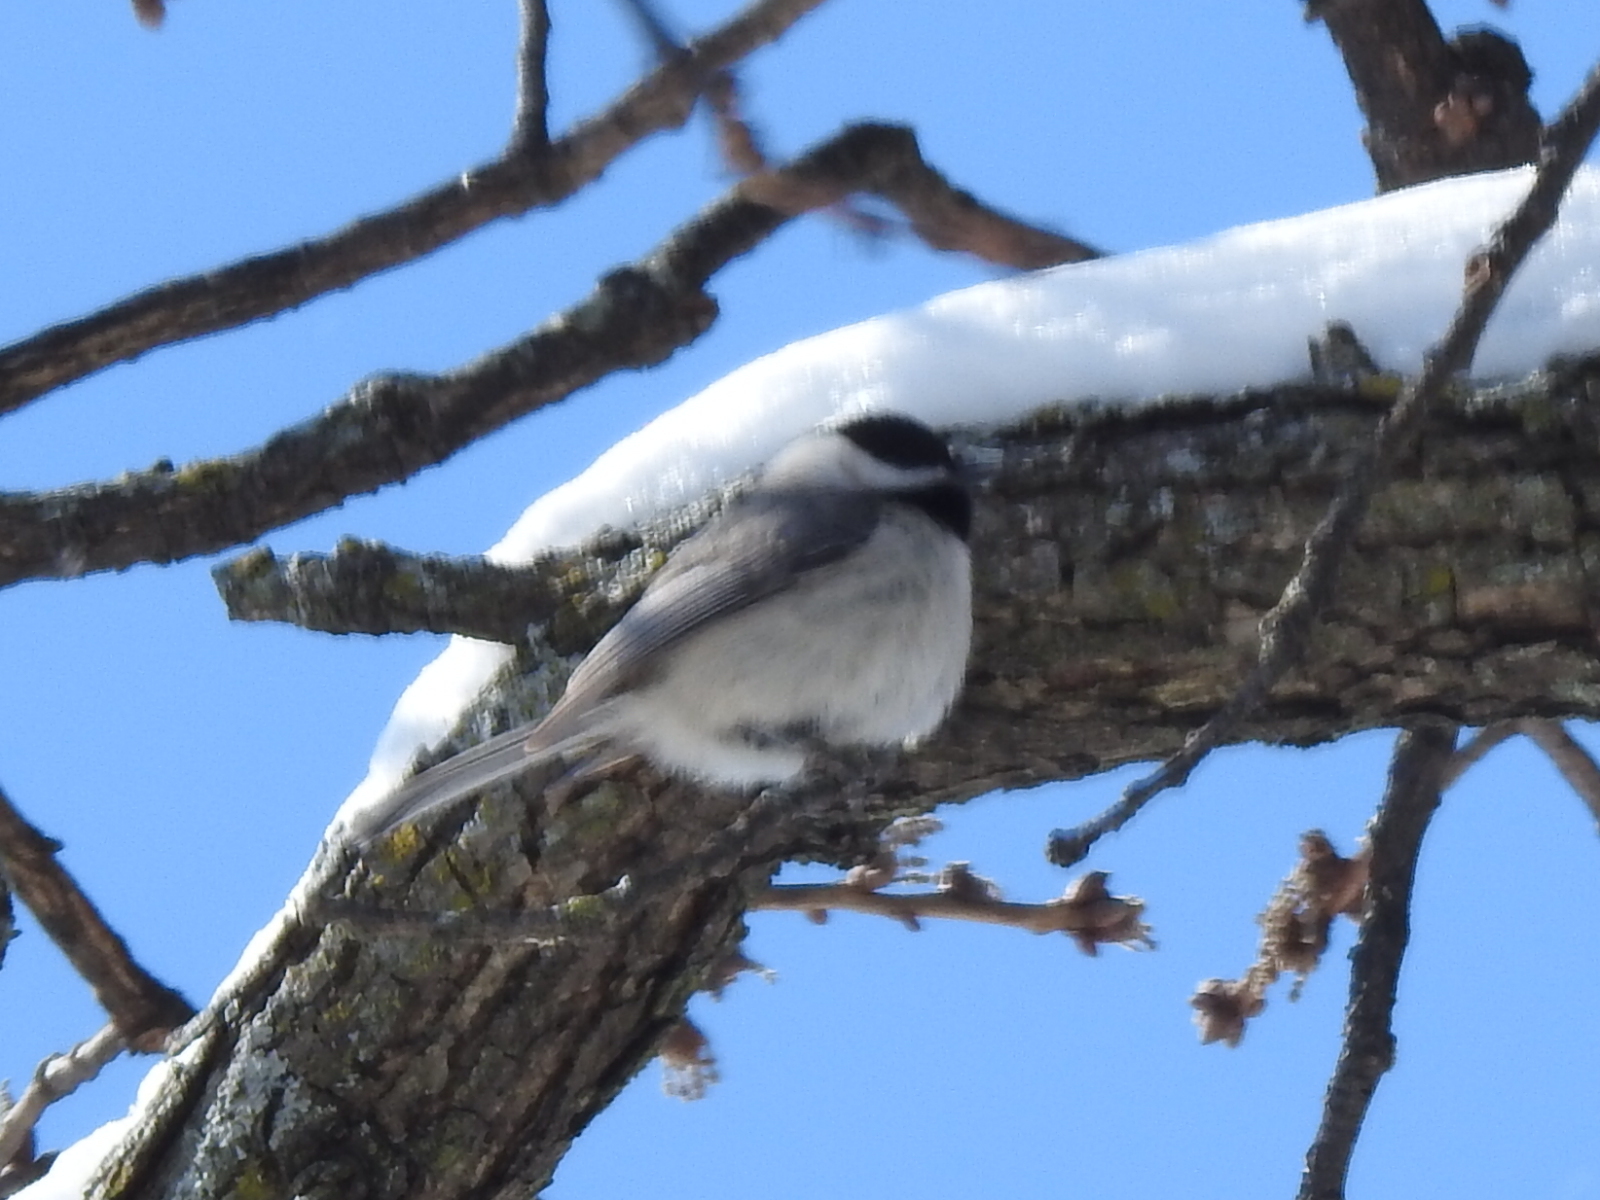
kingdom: Animalia
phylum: Chordata
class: Aves
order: Passeriformes
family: Paridae
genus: Poecile
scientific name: Poecile carolinensis
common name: Carolina chickadee
